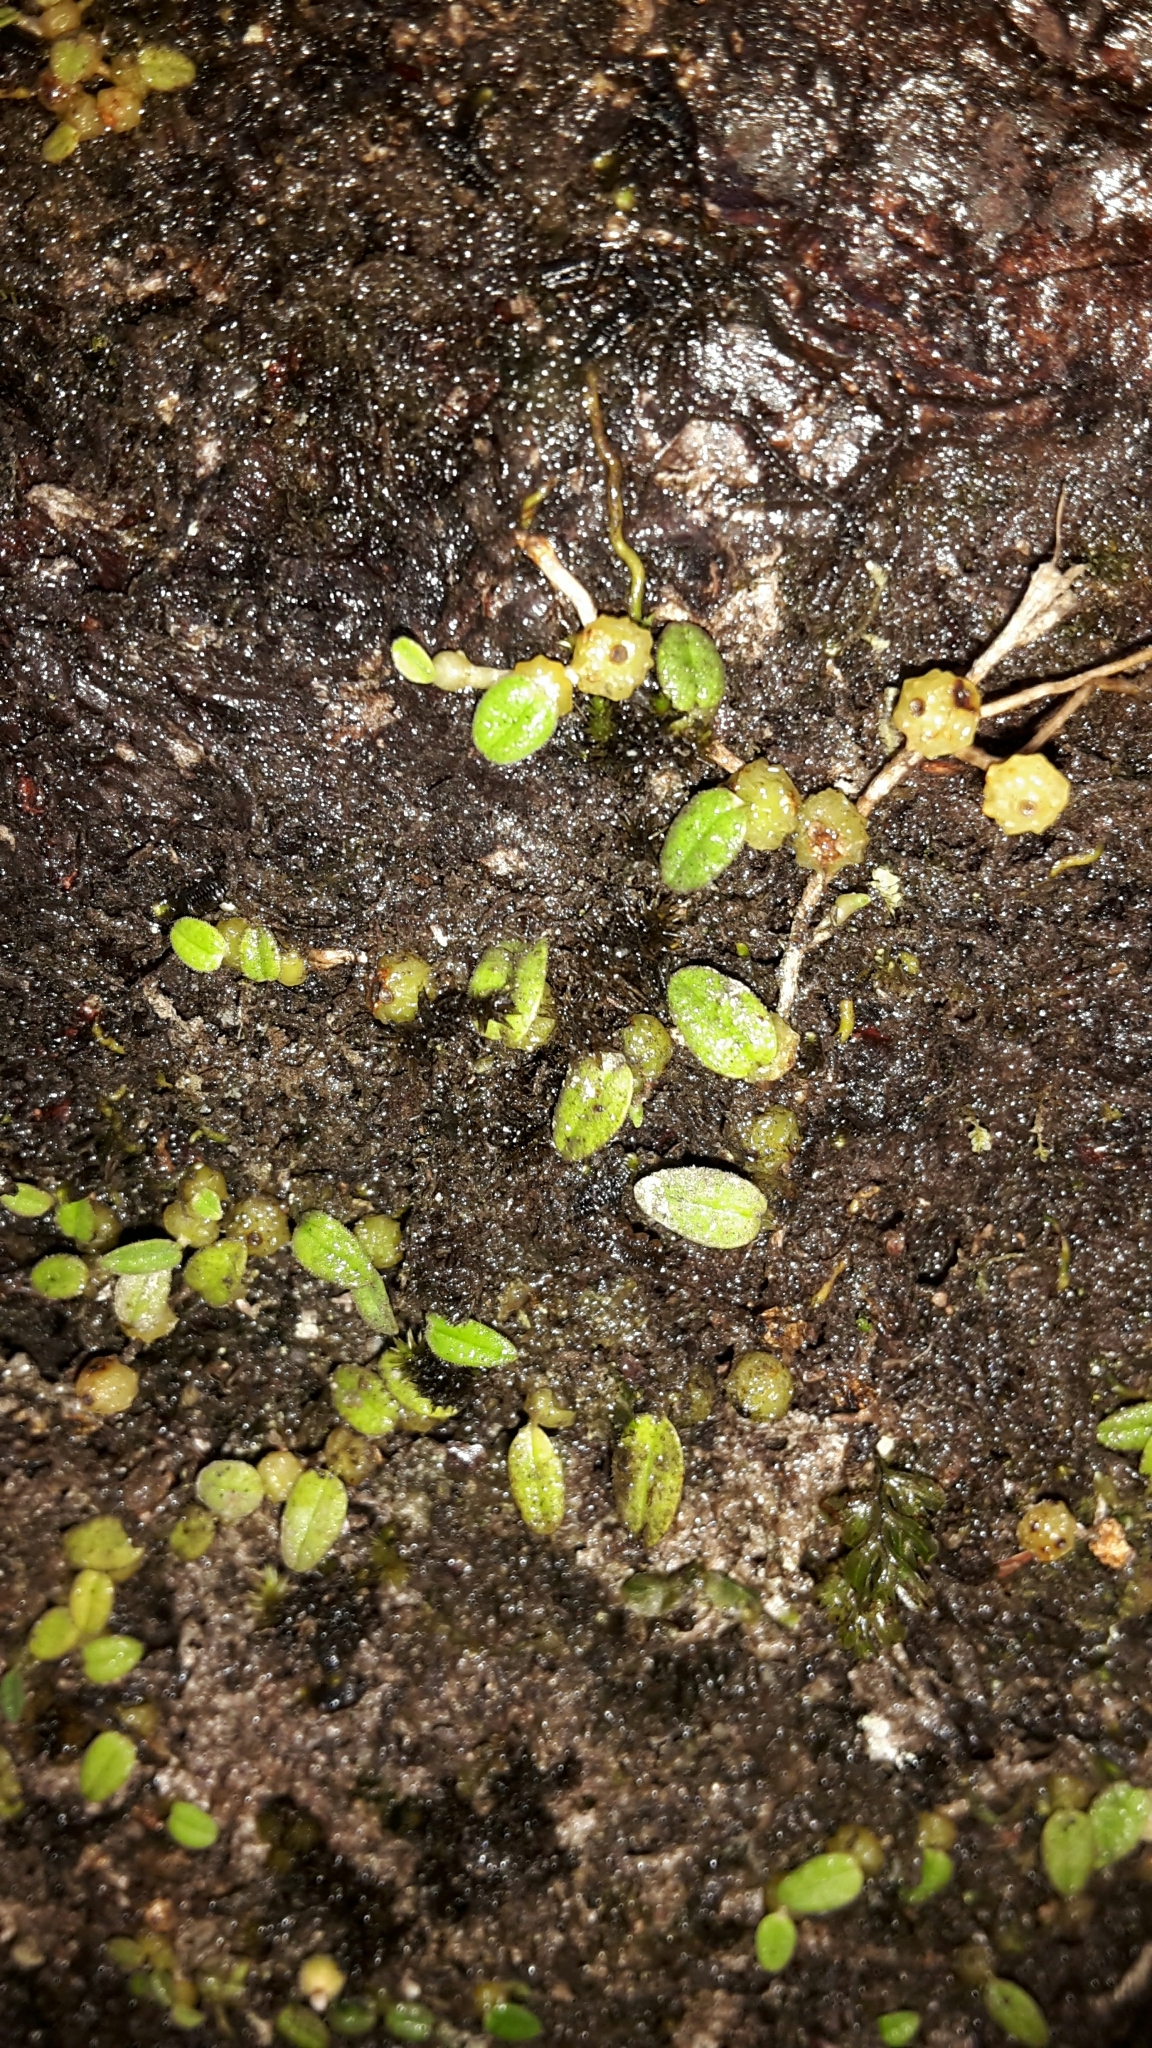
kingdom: Plantae
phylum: Tracheophyta
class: Liliopsida
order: Asparagales
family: Orchidaceae
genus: Bulbophyllum
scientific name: Bulbophyllum pygmaeum
